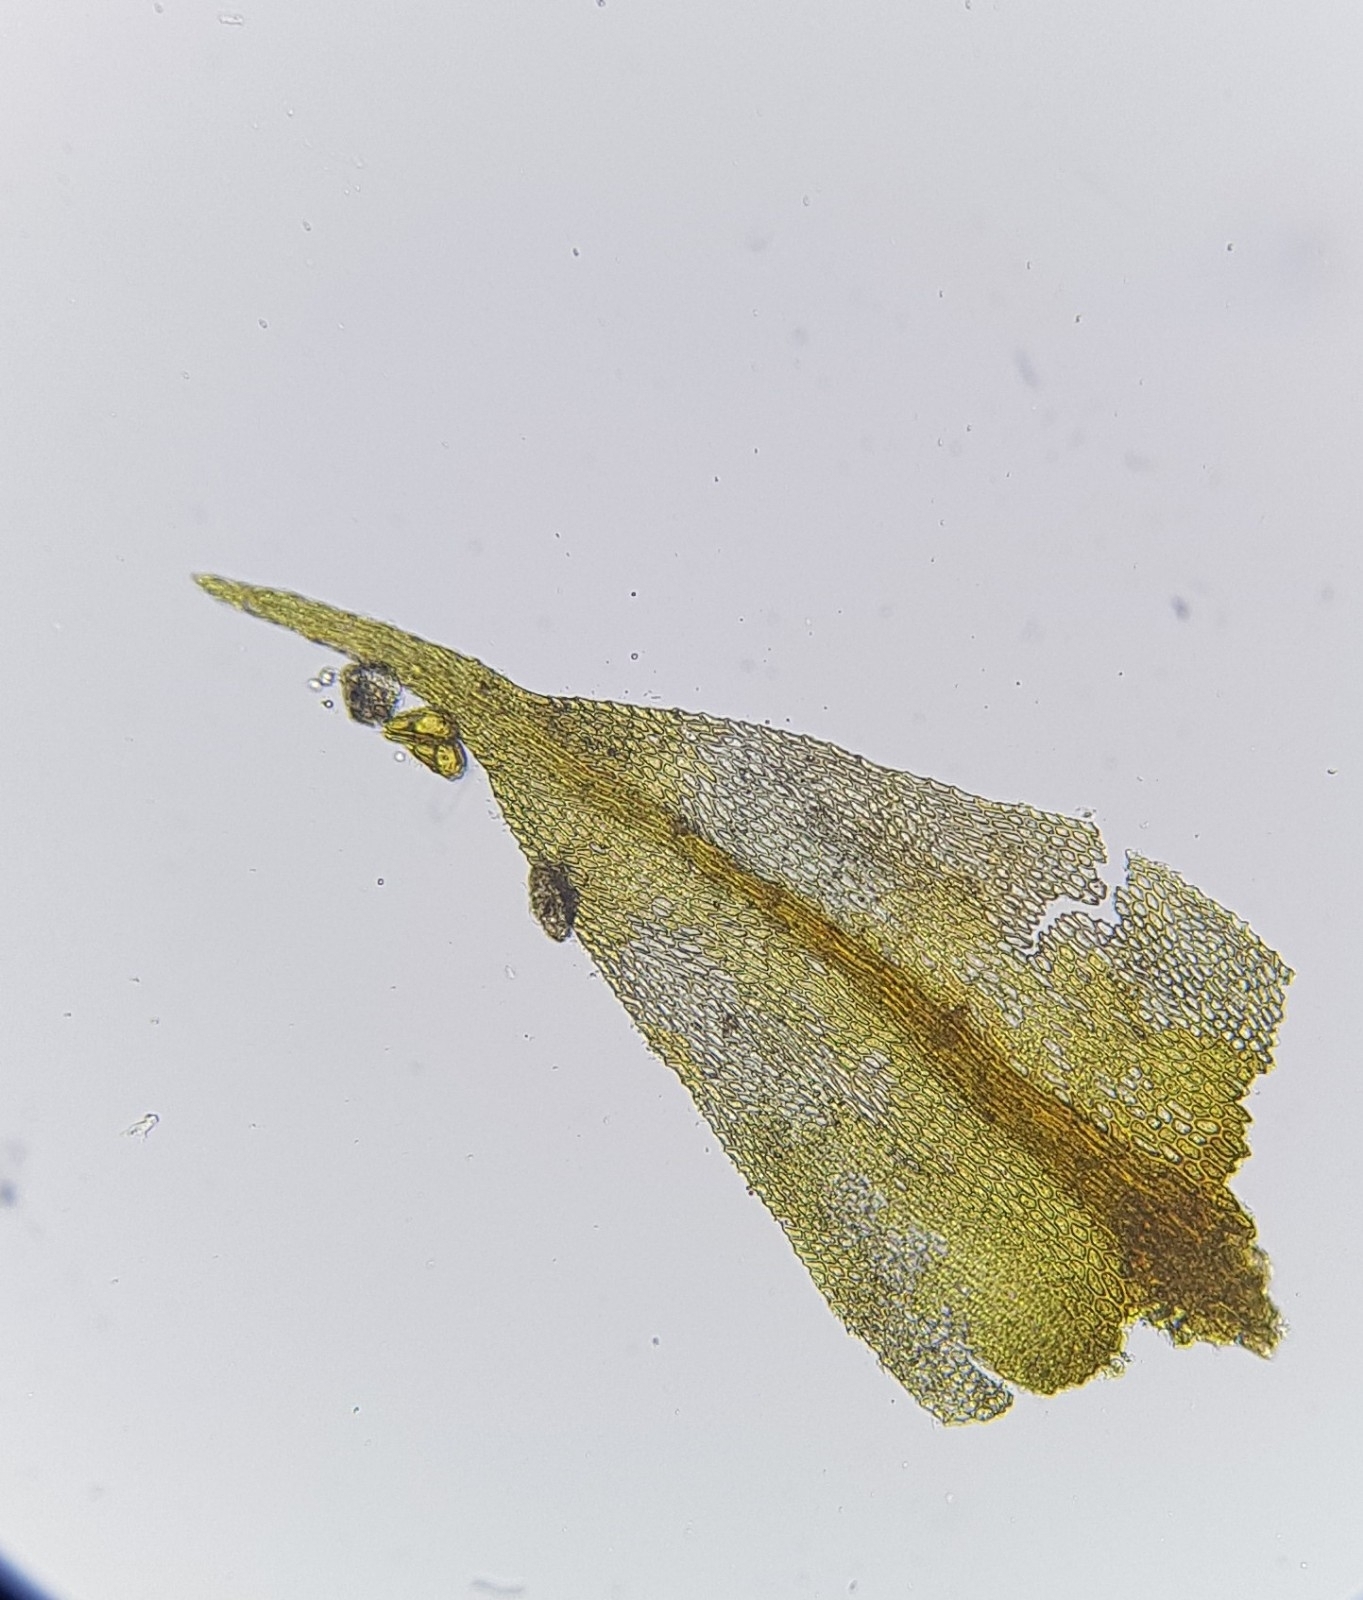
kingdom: Plantae
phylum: Bryophyta
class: Bryopsida
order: Hypnales
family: Amblystegiaceae
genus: Campylium
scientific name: Campylium chrysophyllum
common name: Goldenleaf campylium moss
